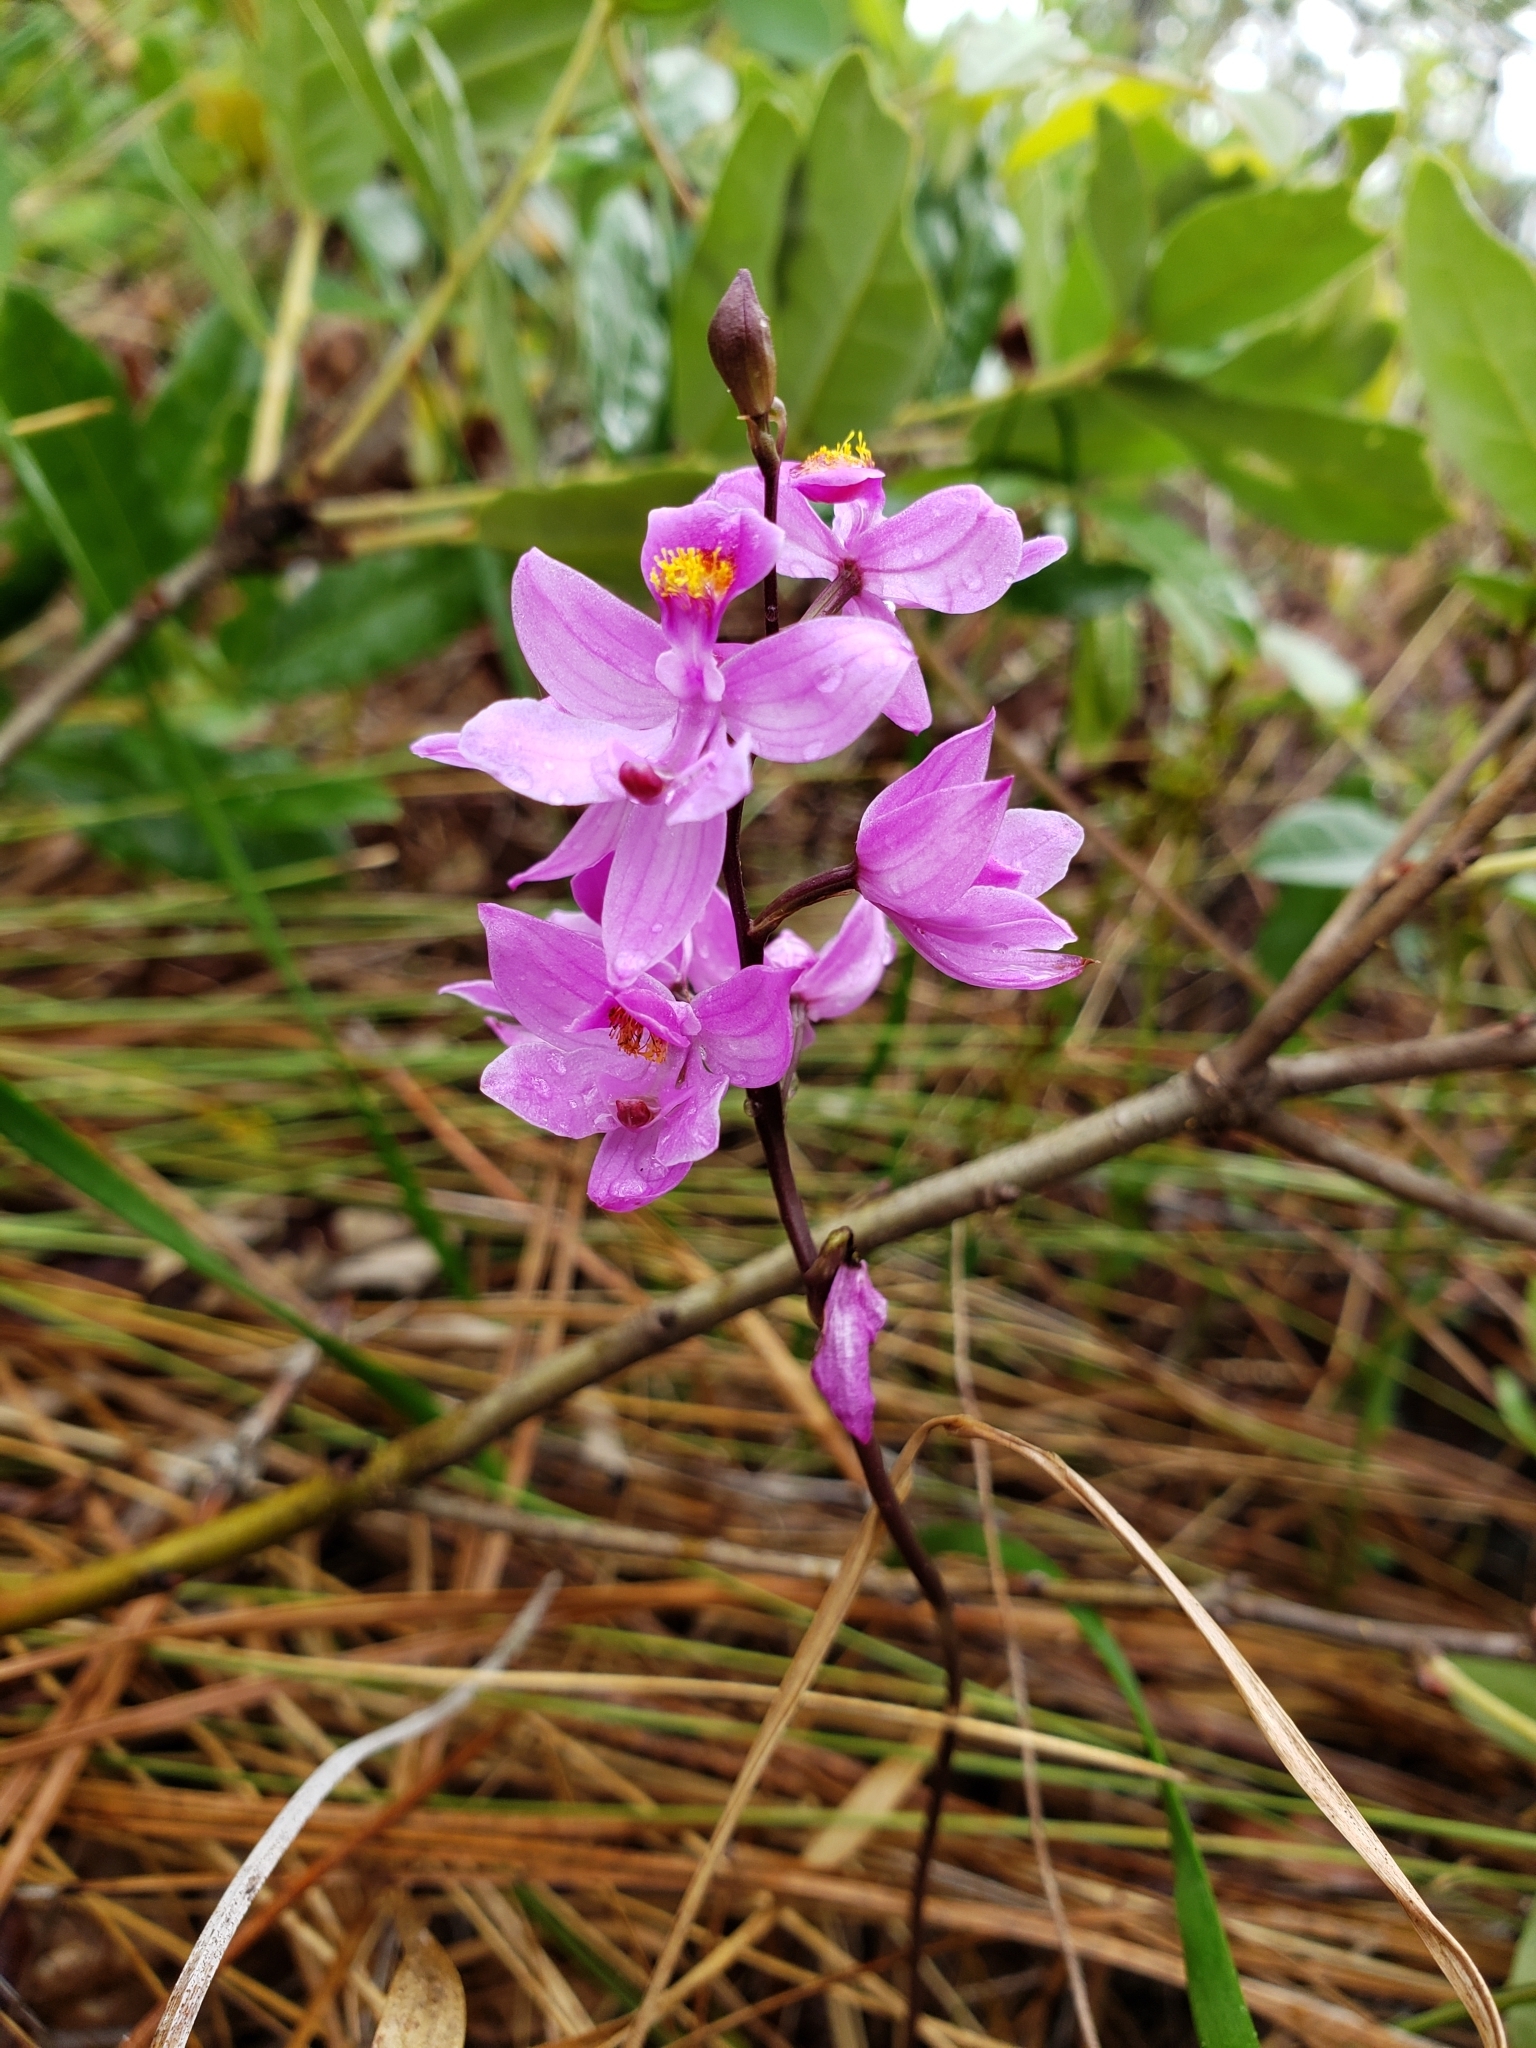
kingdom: Plantae
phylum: Tracheophyta
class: Liliopsida
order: Asparagales
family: Orchidaceae
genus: Calopogon
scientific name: Calopogon multiflorus
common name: Many-flowered grass-pink orchid
